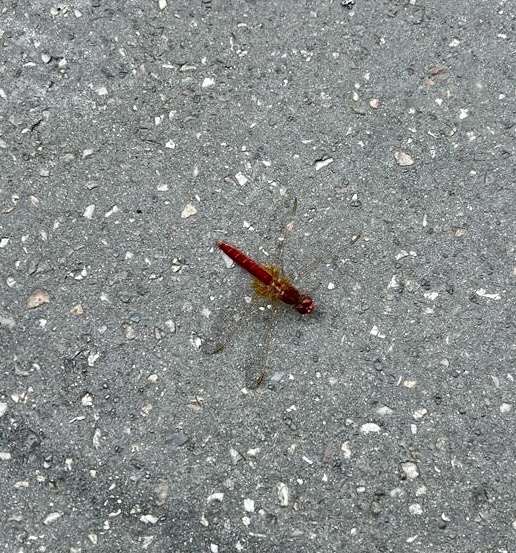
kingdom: Animalia
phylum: Arthropoda
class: Insecta
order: Odonata
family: Libellulidae
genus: Crocothemis
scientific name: Crocothemis erythraea
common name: Scarlet dragonfly
